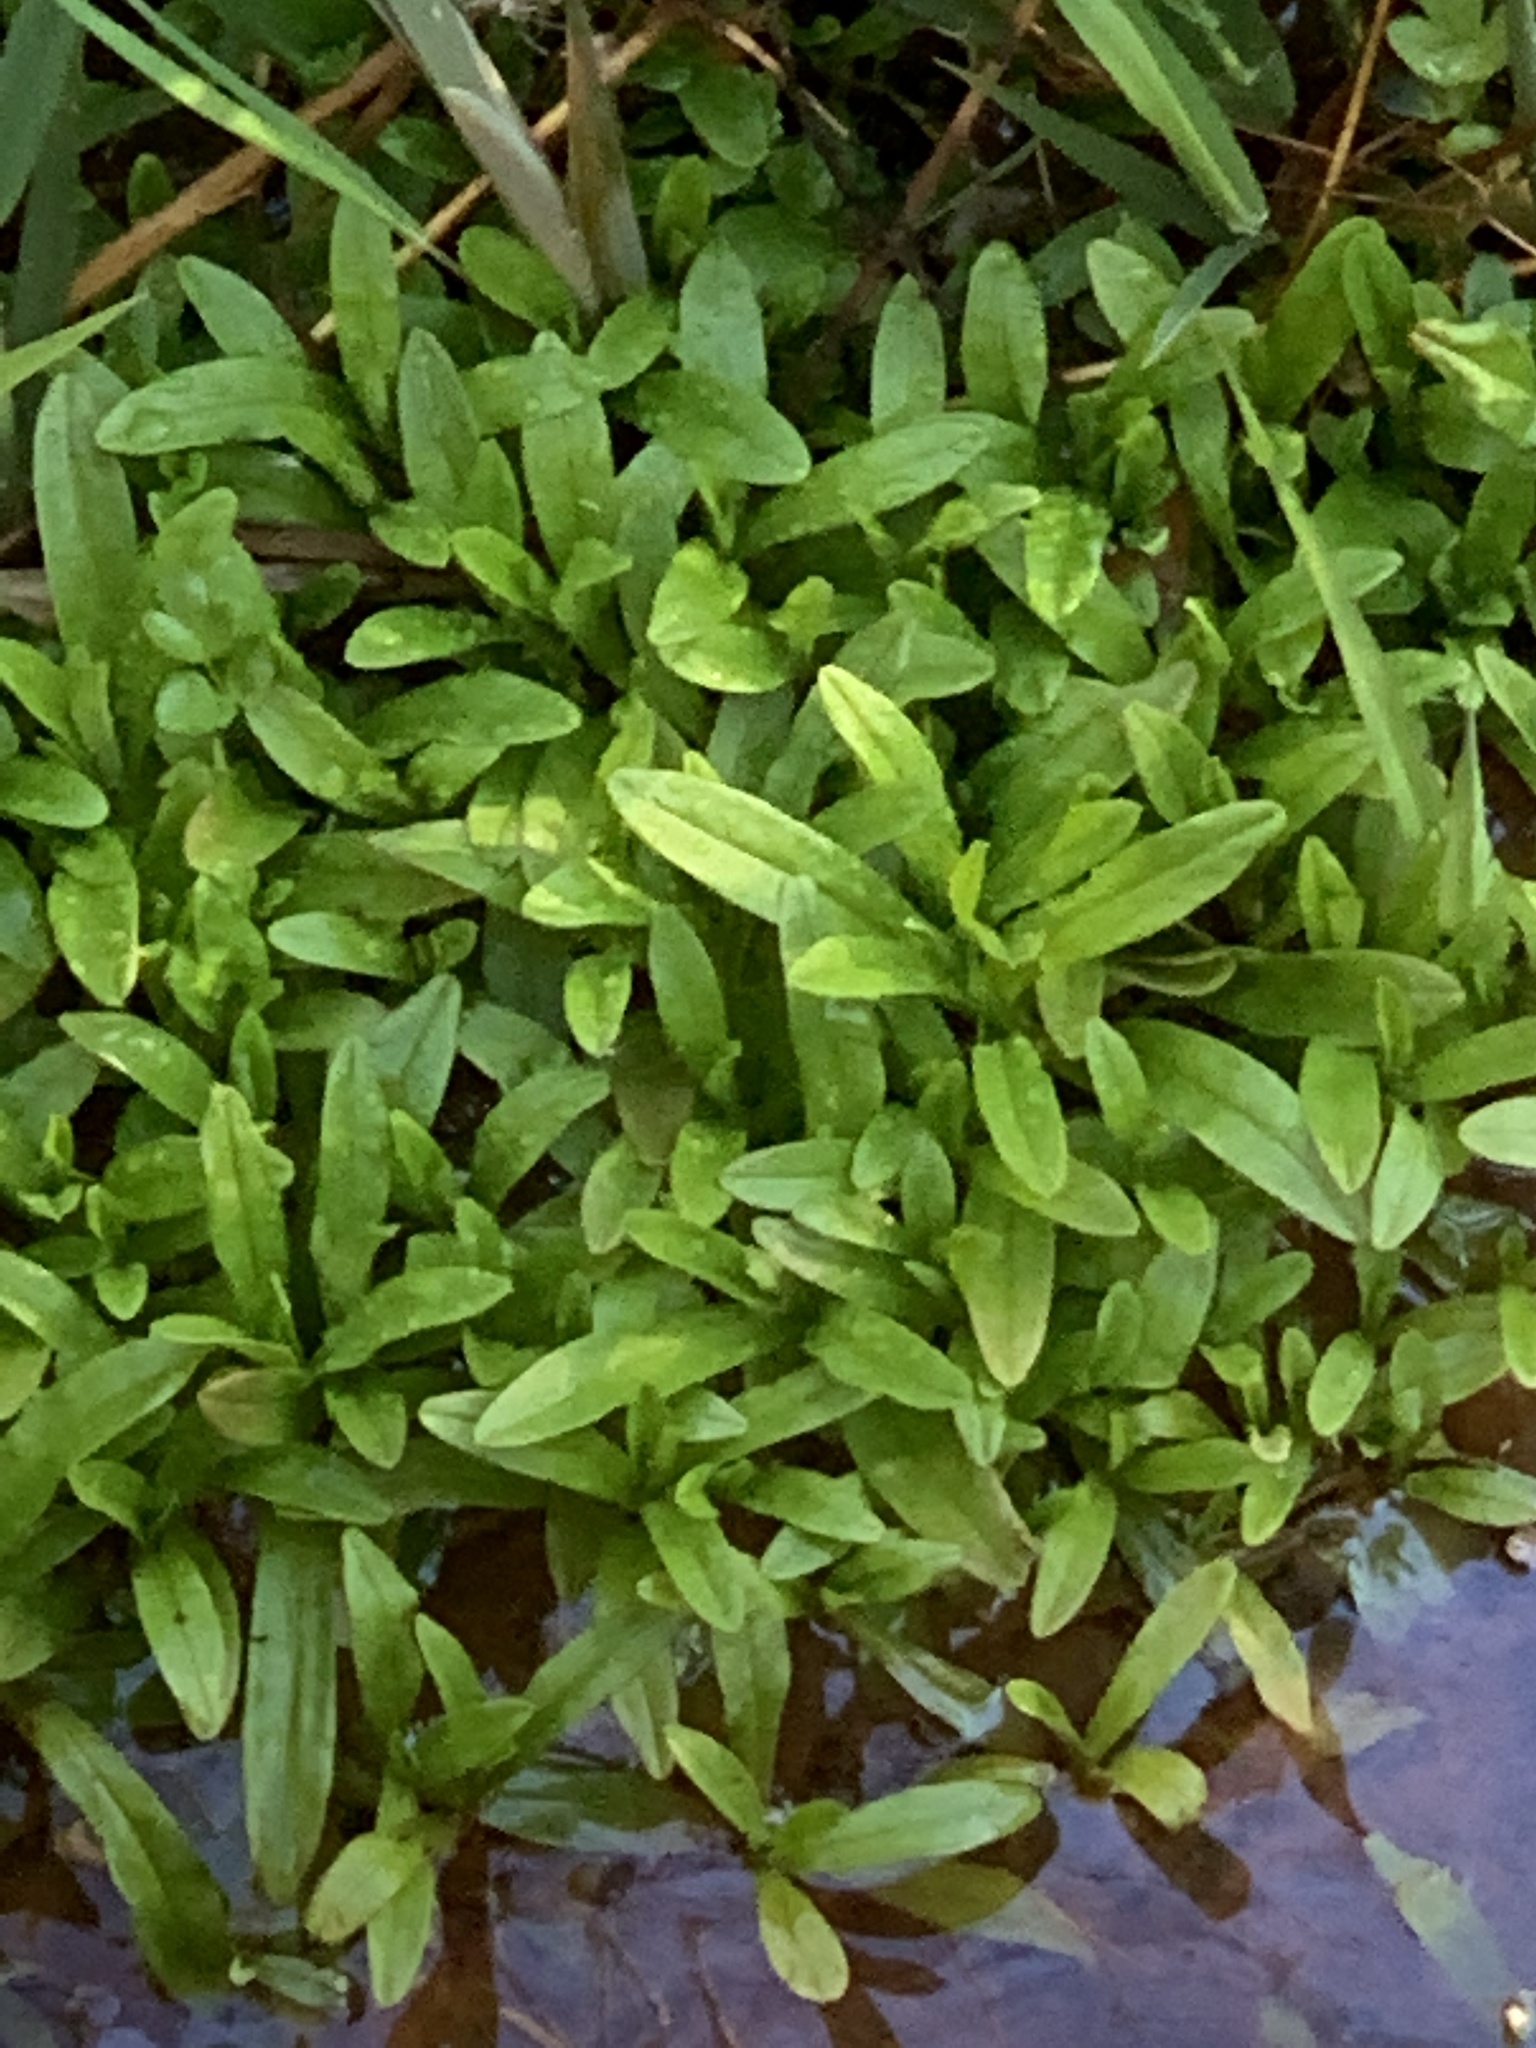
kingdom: Plantae
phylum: Tracheophyta
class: Magnoliopsida
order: Boraginales
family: Boraginaceae
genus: Myosotis
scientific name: Myosotis scorpioides
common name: Water forget-me-not
